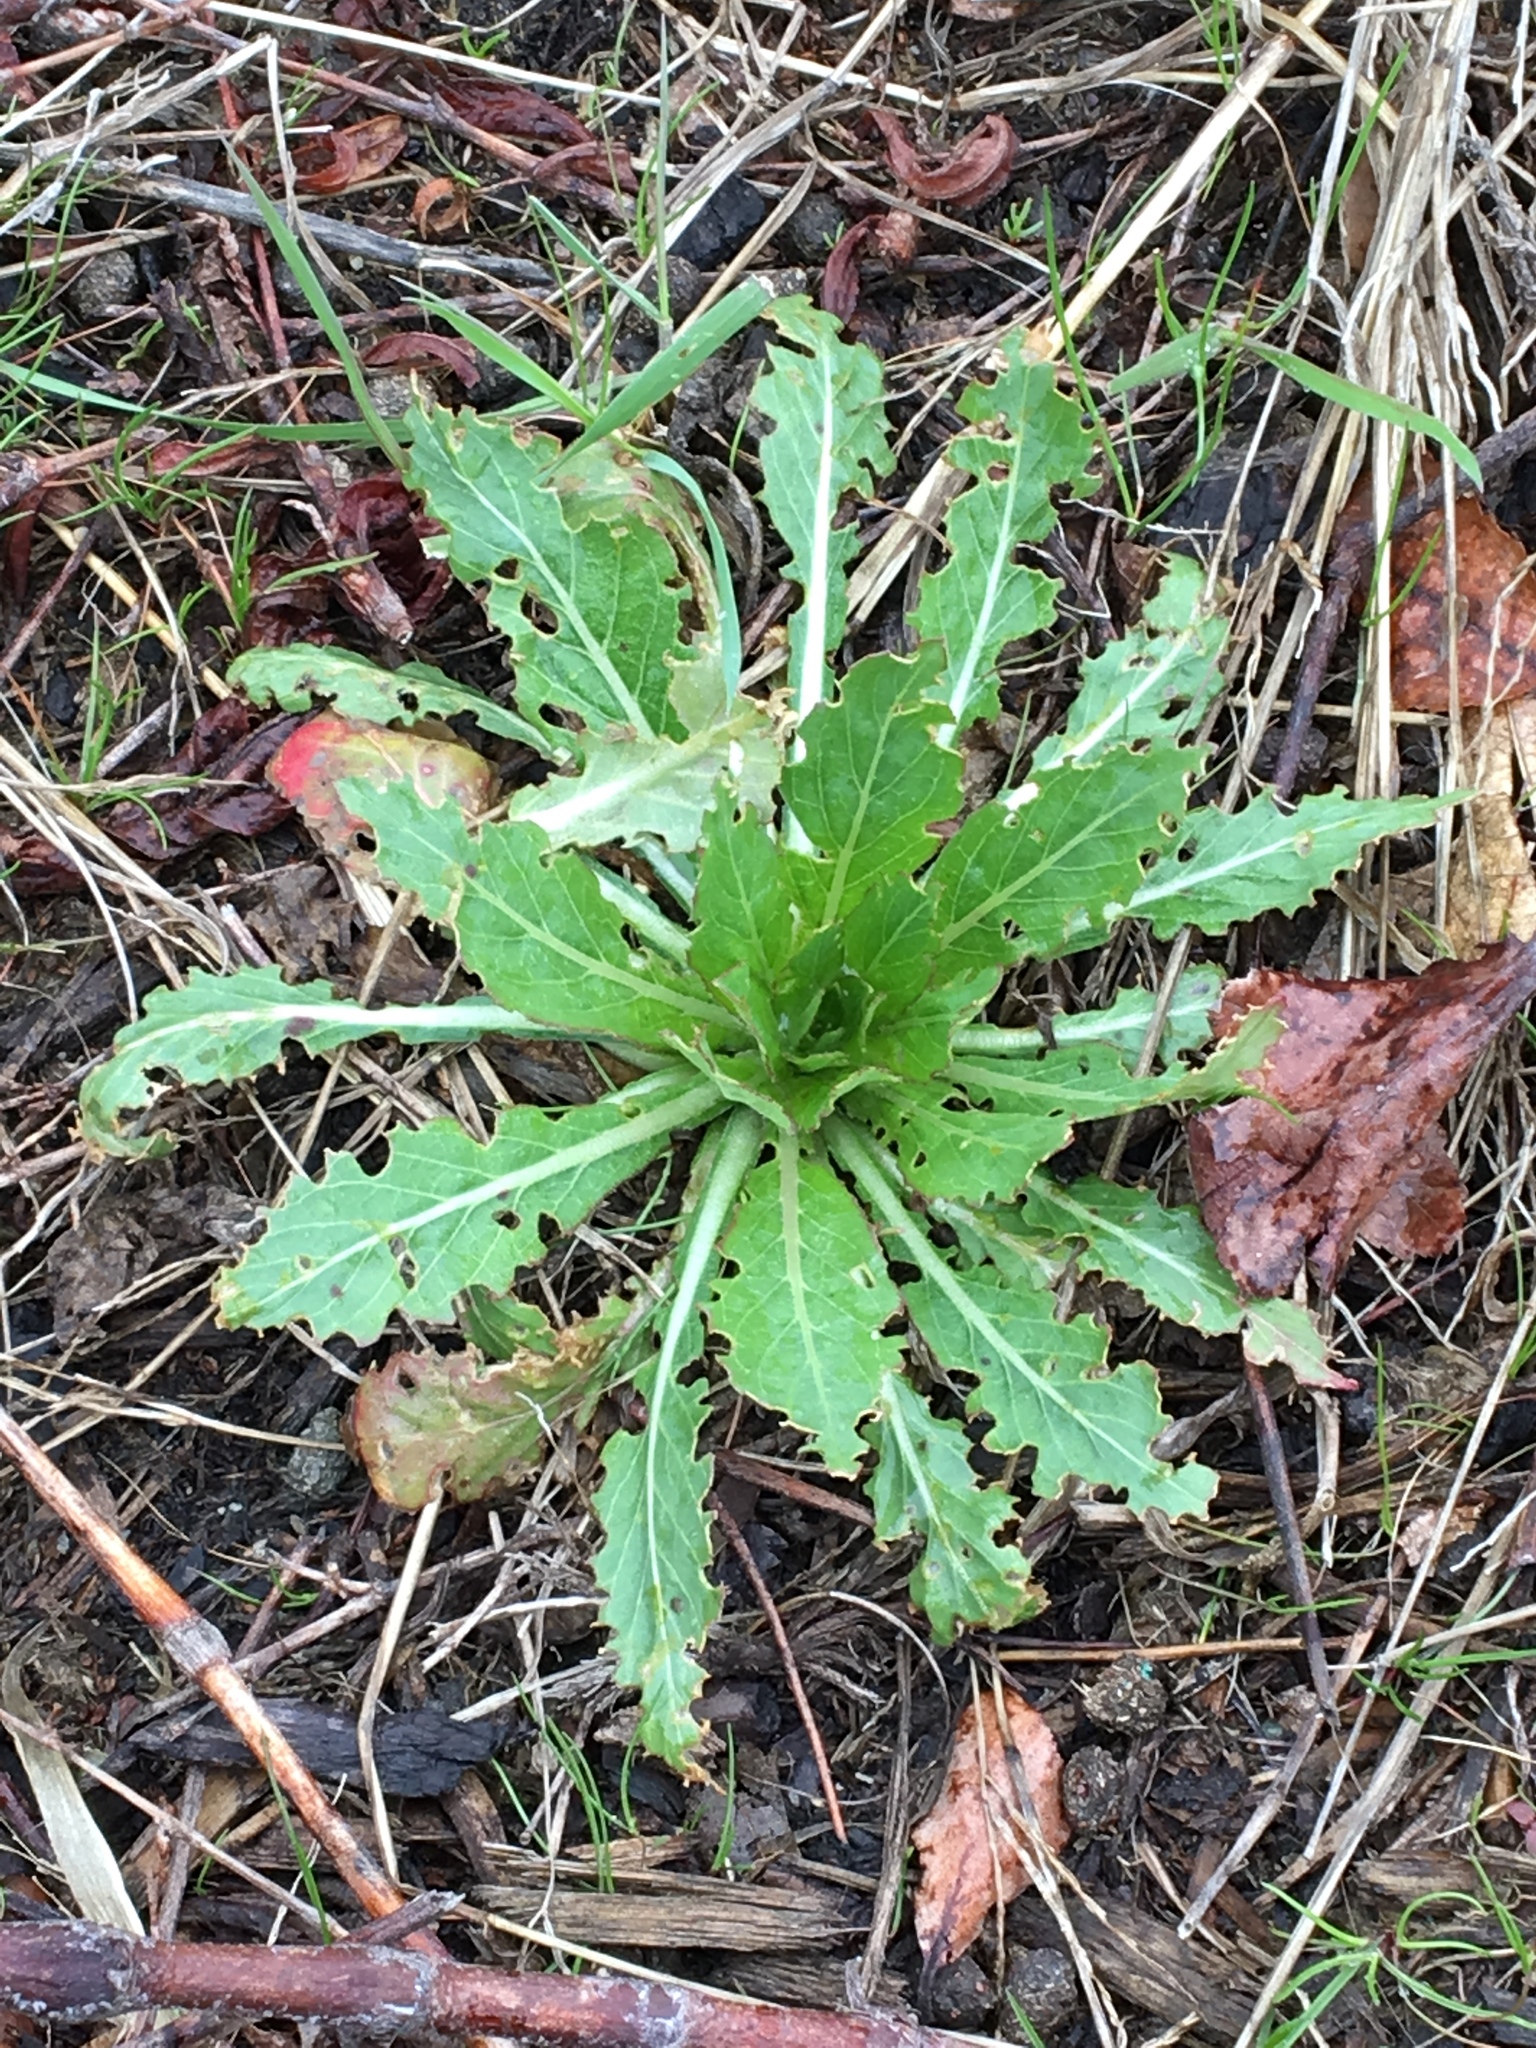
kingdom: Plantae
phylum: Tracheophyta
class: Magnoliopsida
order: Myrtales
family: Onagraceae
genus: Oenothera
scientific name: Oenothera biennis
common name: Common evening-primrose
